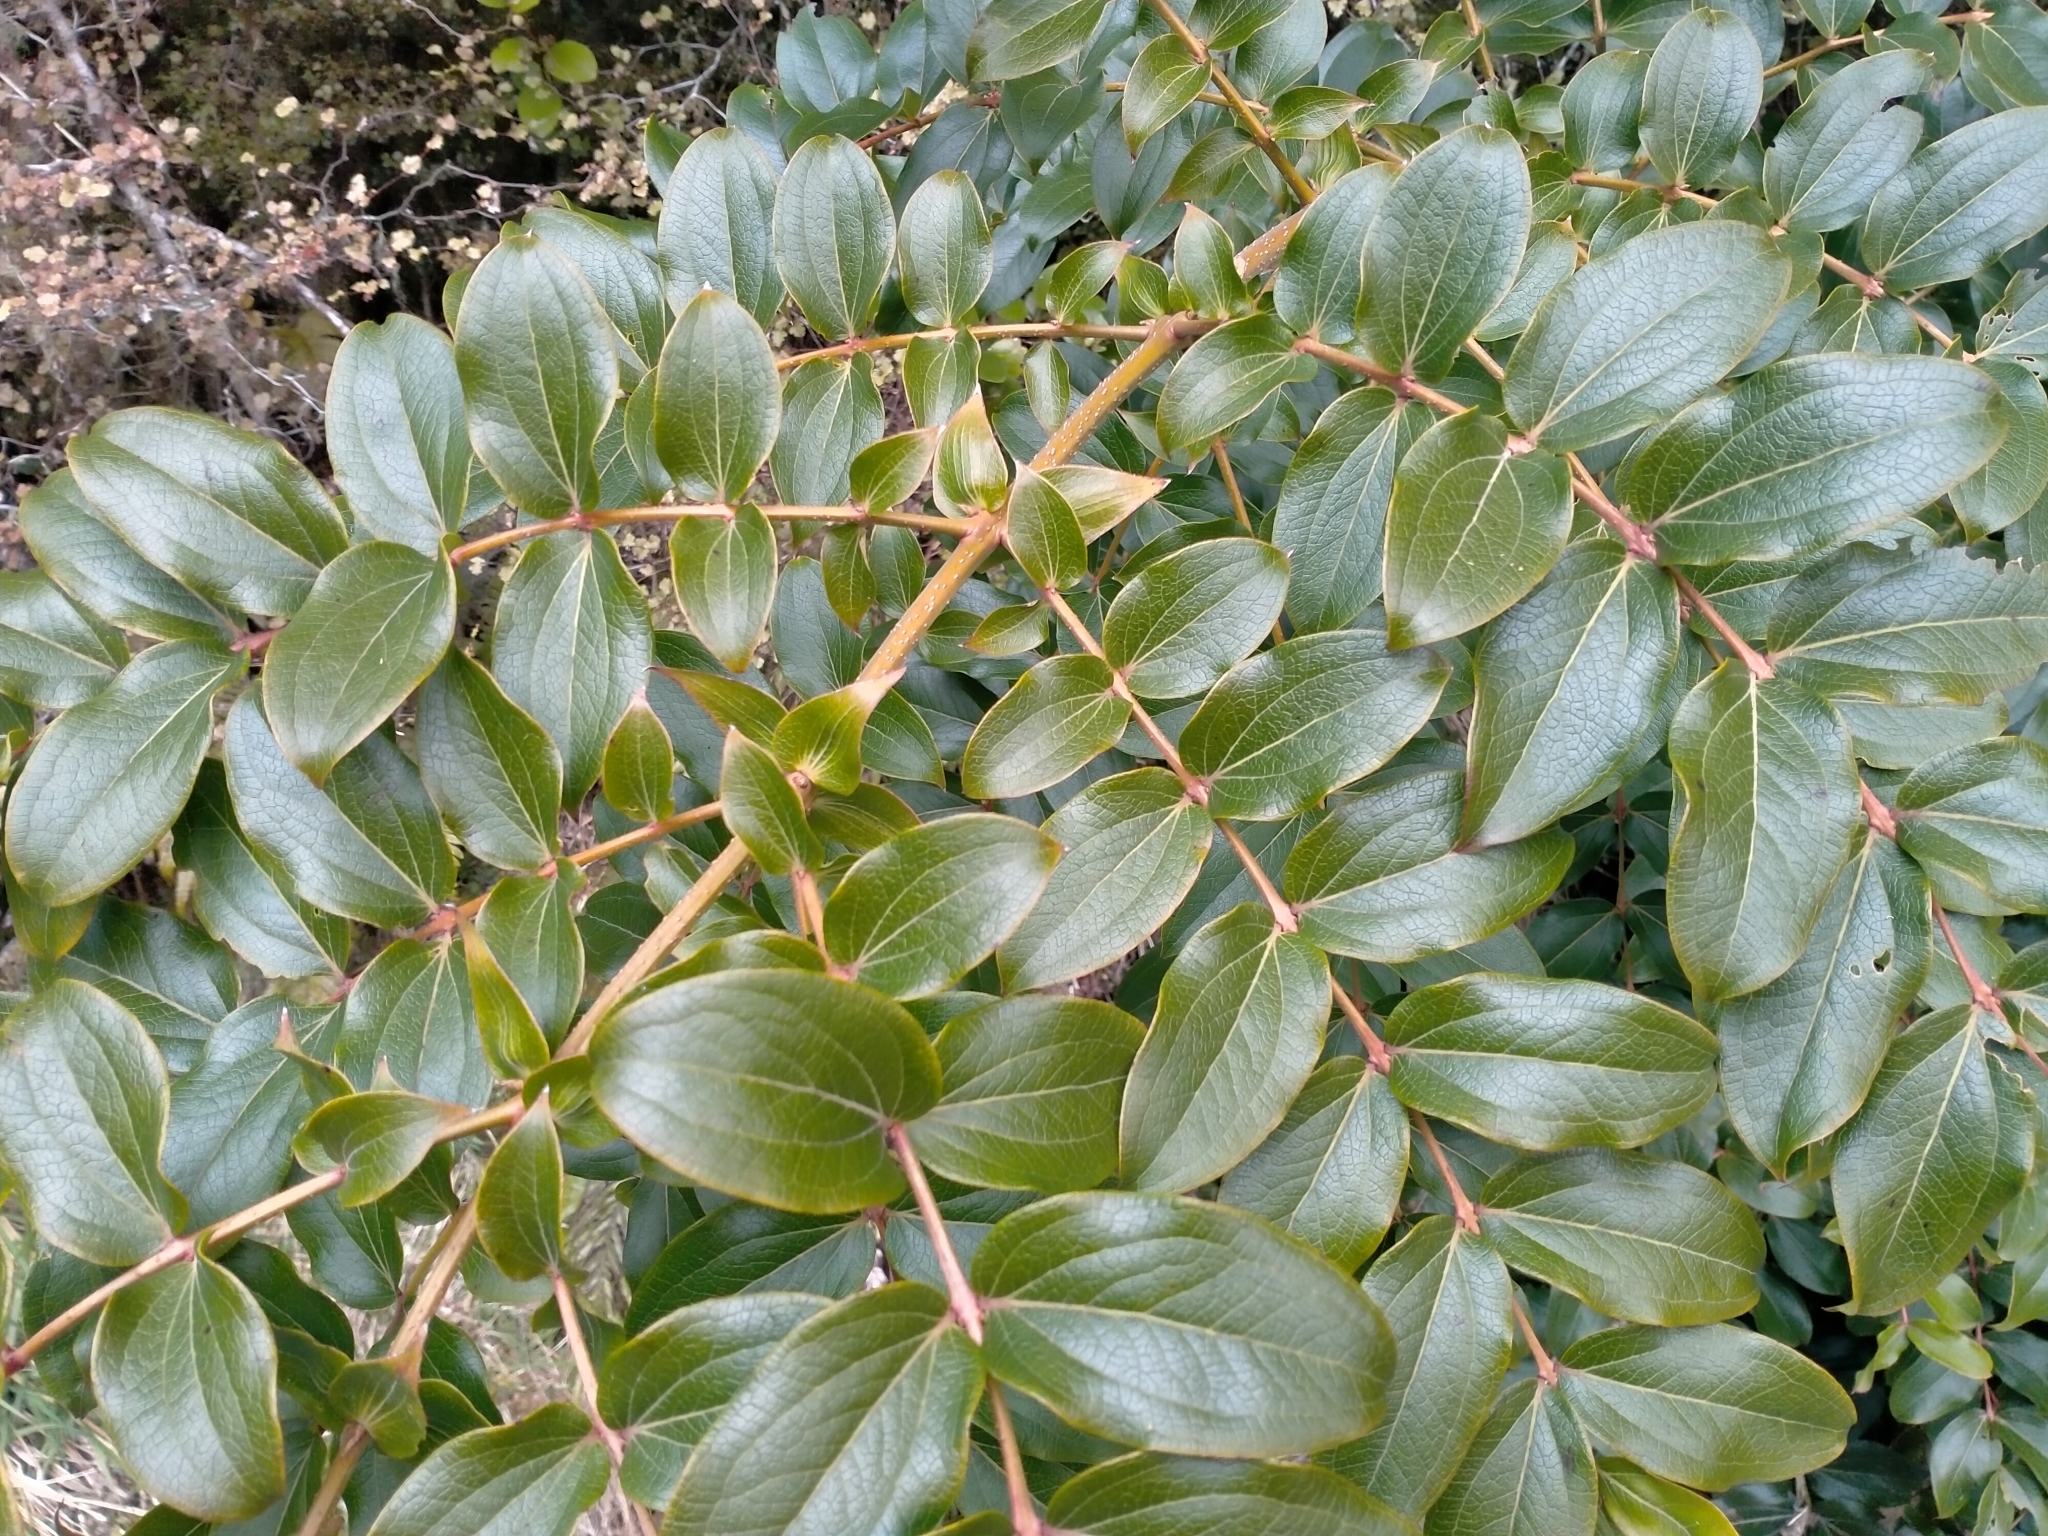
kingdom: Plantae
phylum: Tracheophyta
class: Magnoliopsida
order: Cucurbitales
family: Coriariaceae
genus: Coriaria
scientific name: Coriaria arborea
